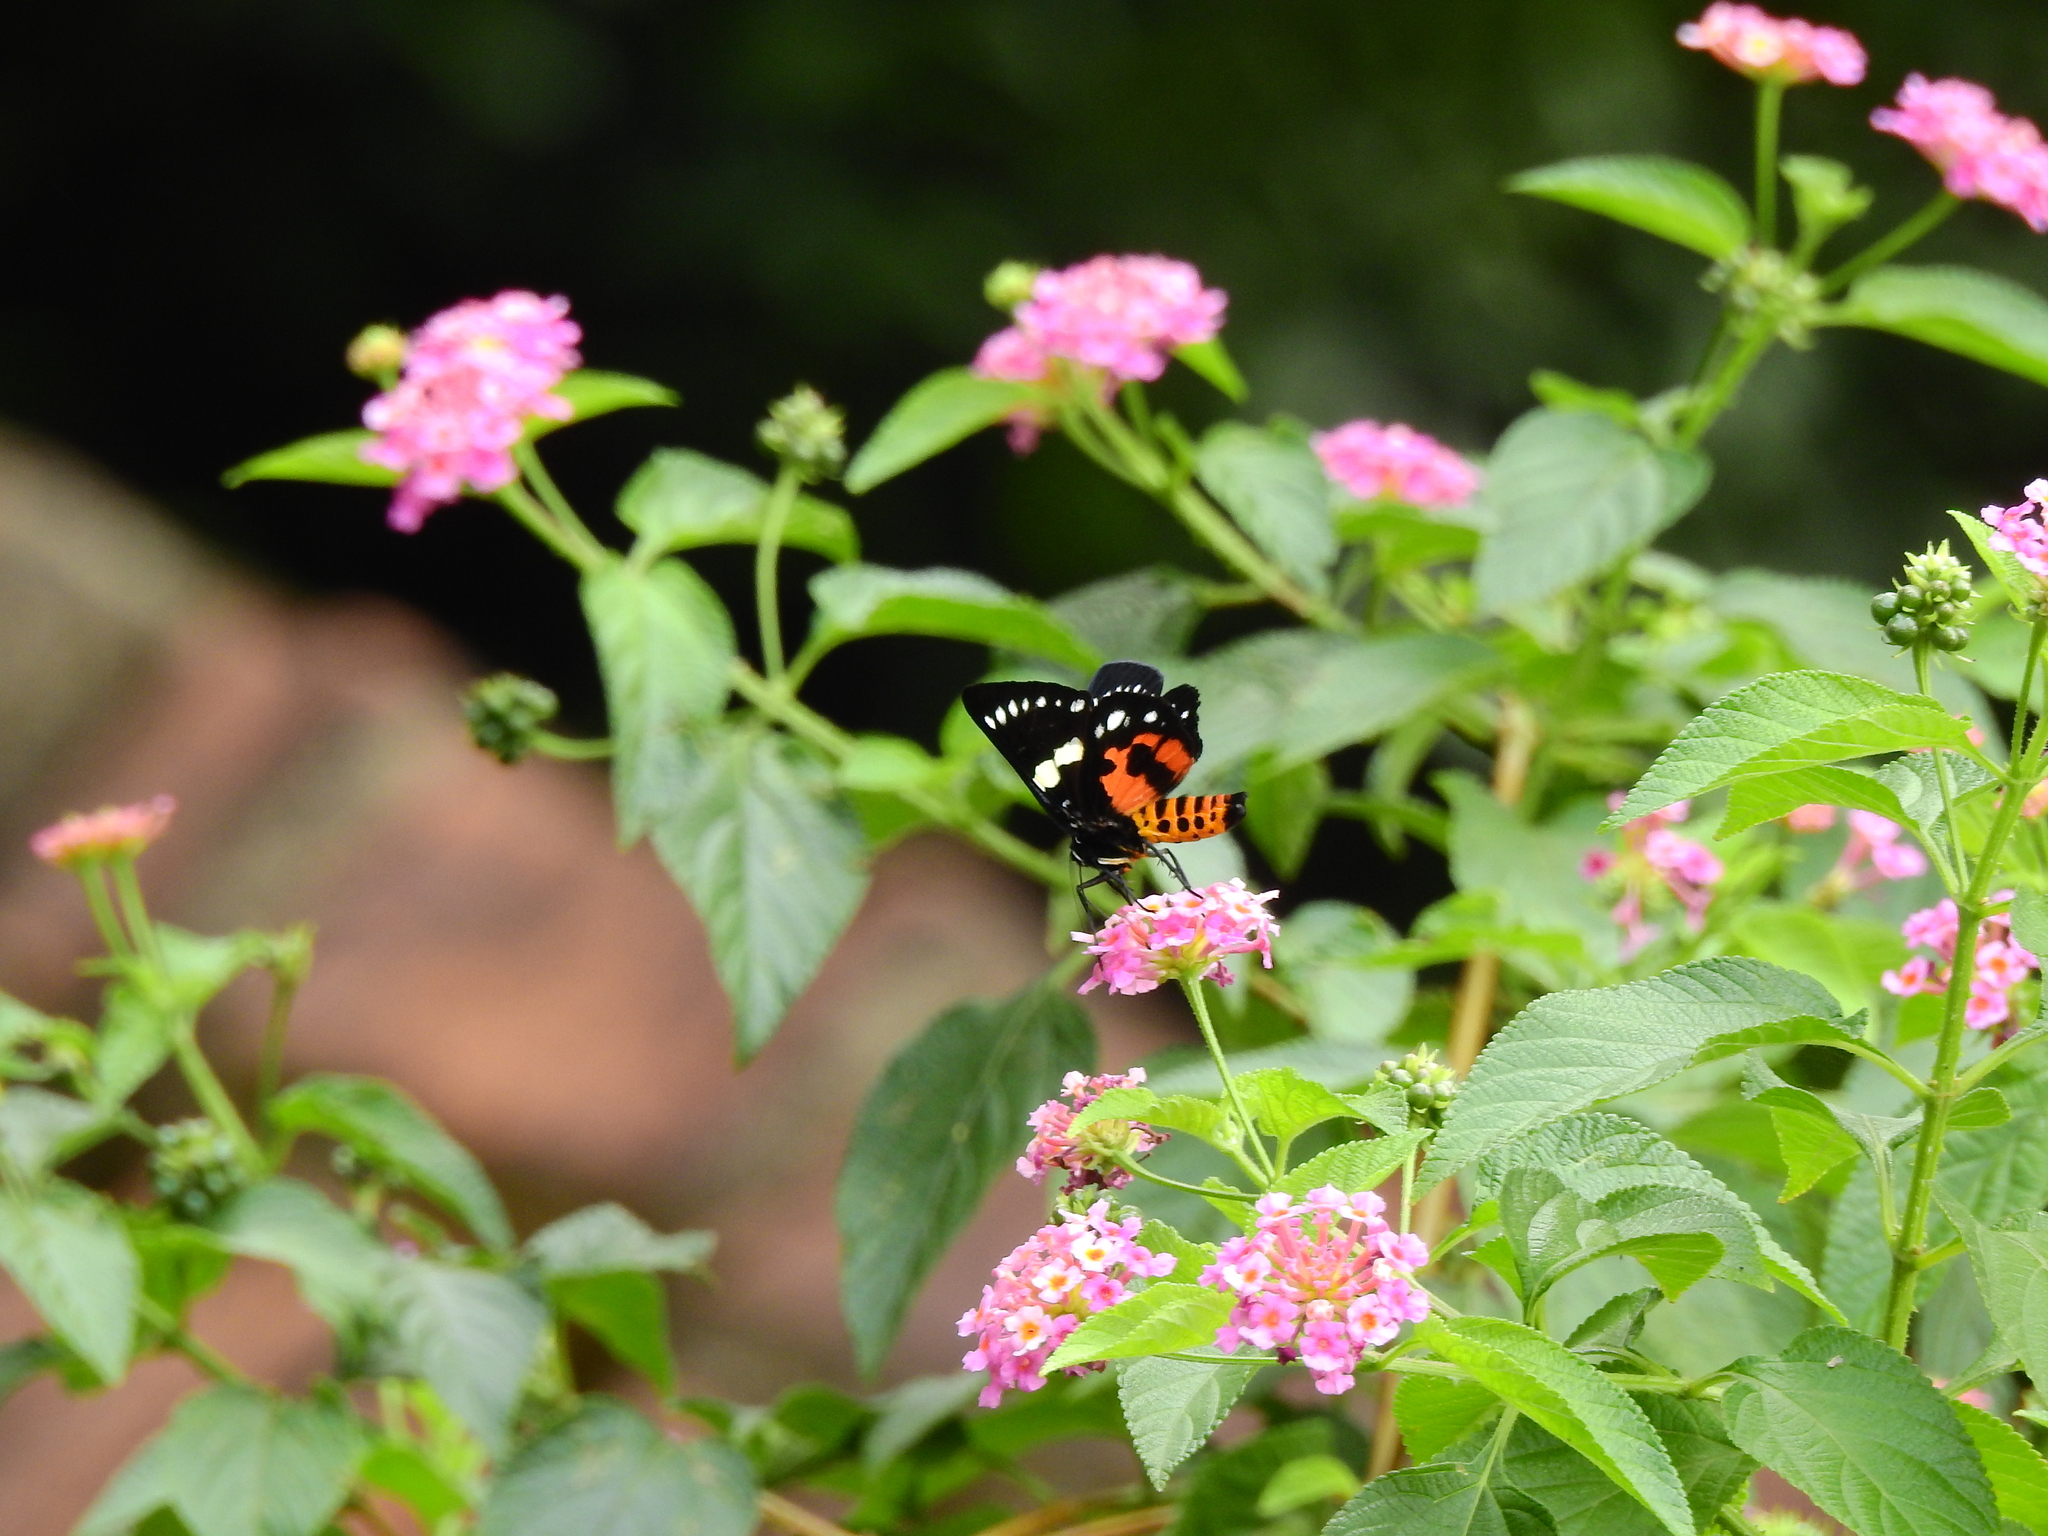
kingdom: Animalia
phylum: Arthropoda
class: Insecta
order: Lepidoptera
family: Noctuidae
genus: Episteme
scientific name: Episteme latimargo
